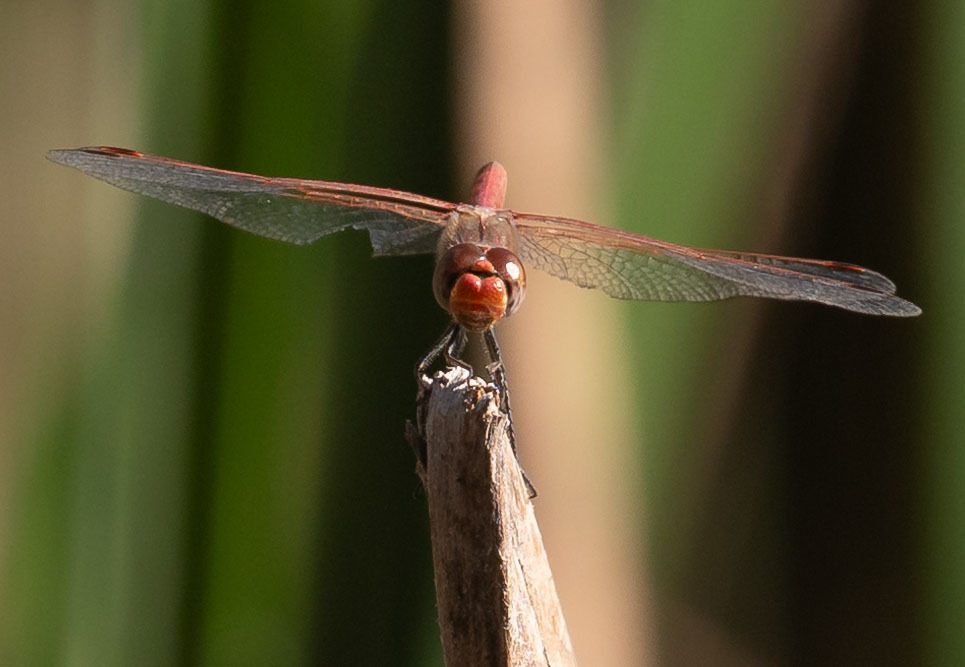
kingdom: Animalia
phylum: Arthropoda
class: Insecta
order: Odonata
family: Libellulidae
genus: Sympetrum
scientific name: Sympetrum corruptum
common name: Variegated meadowhawk
